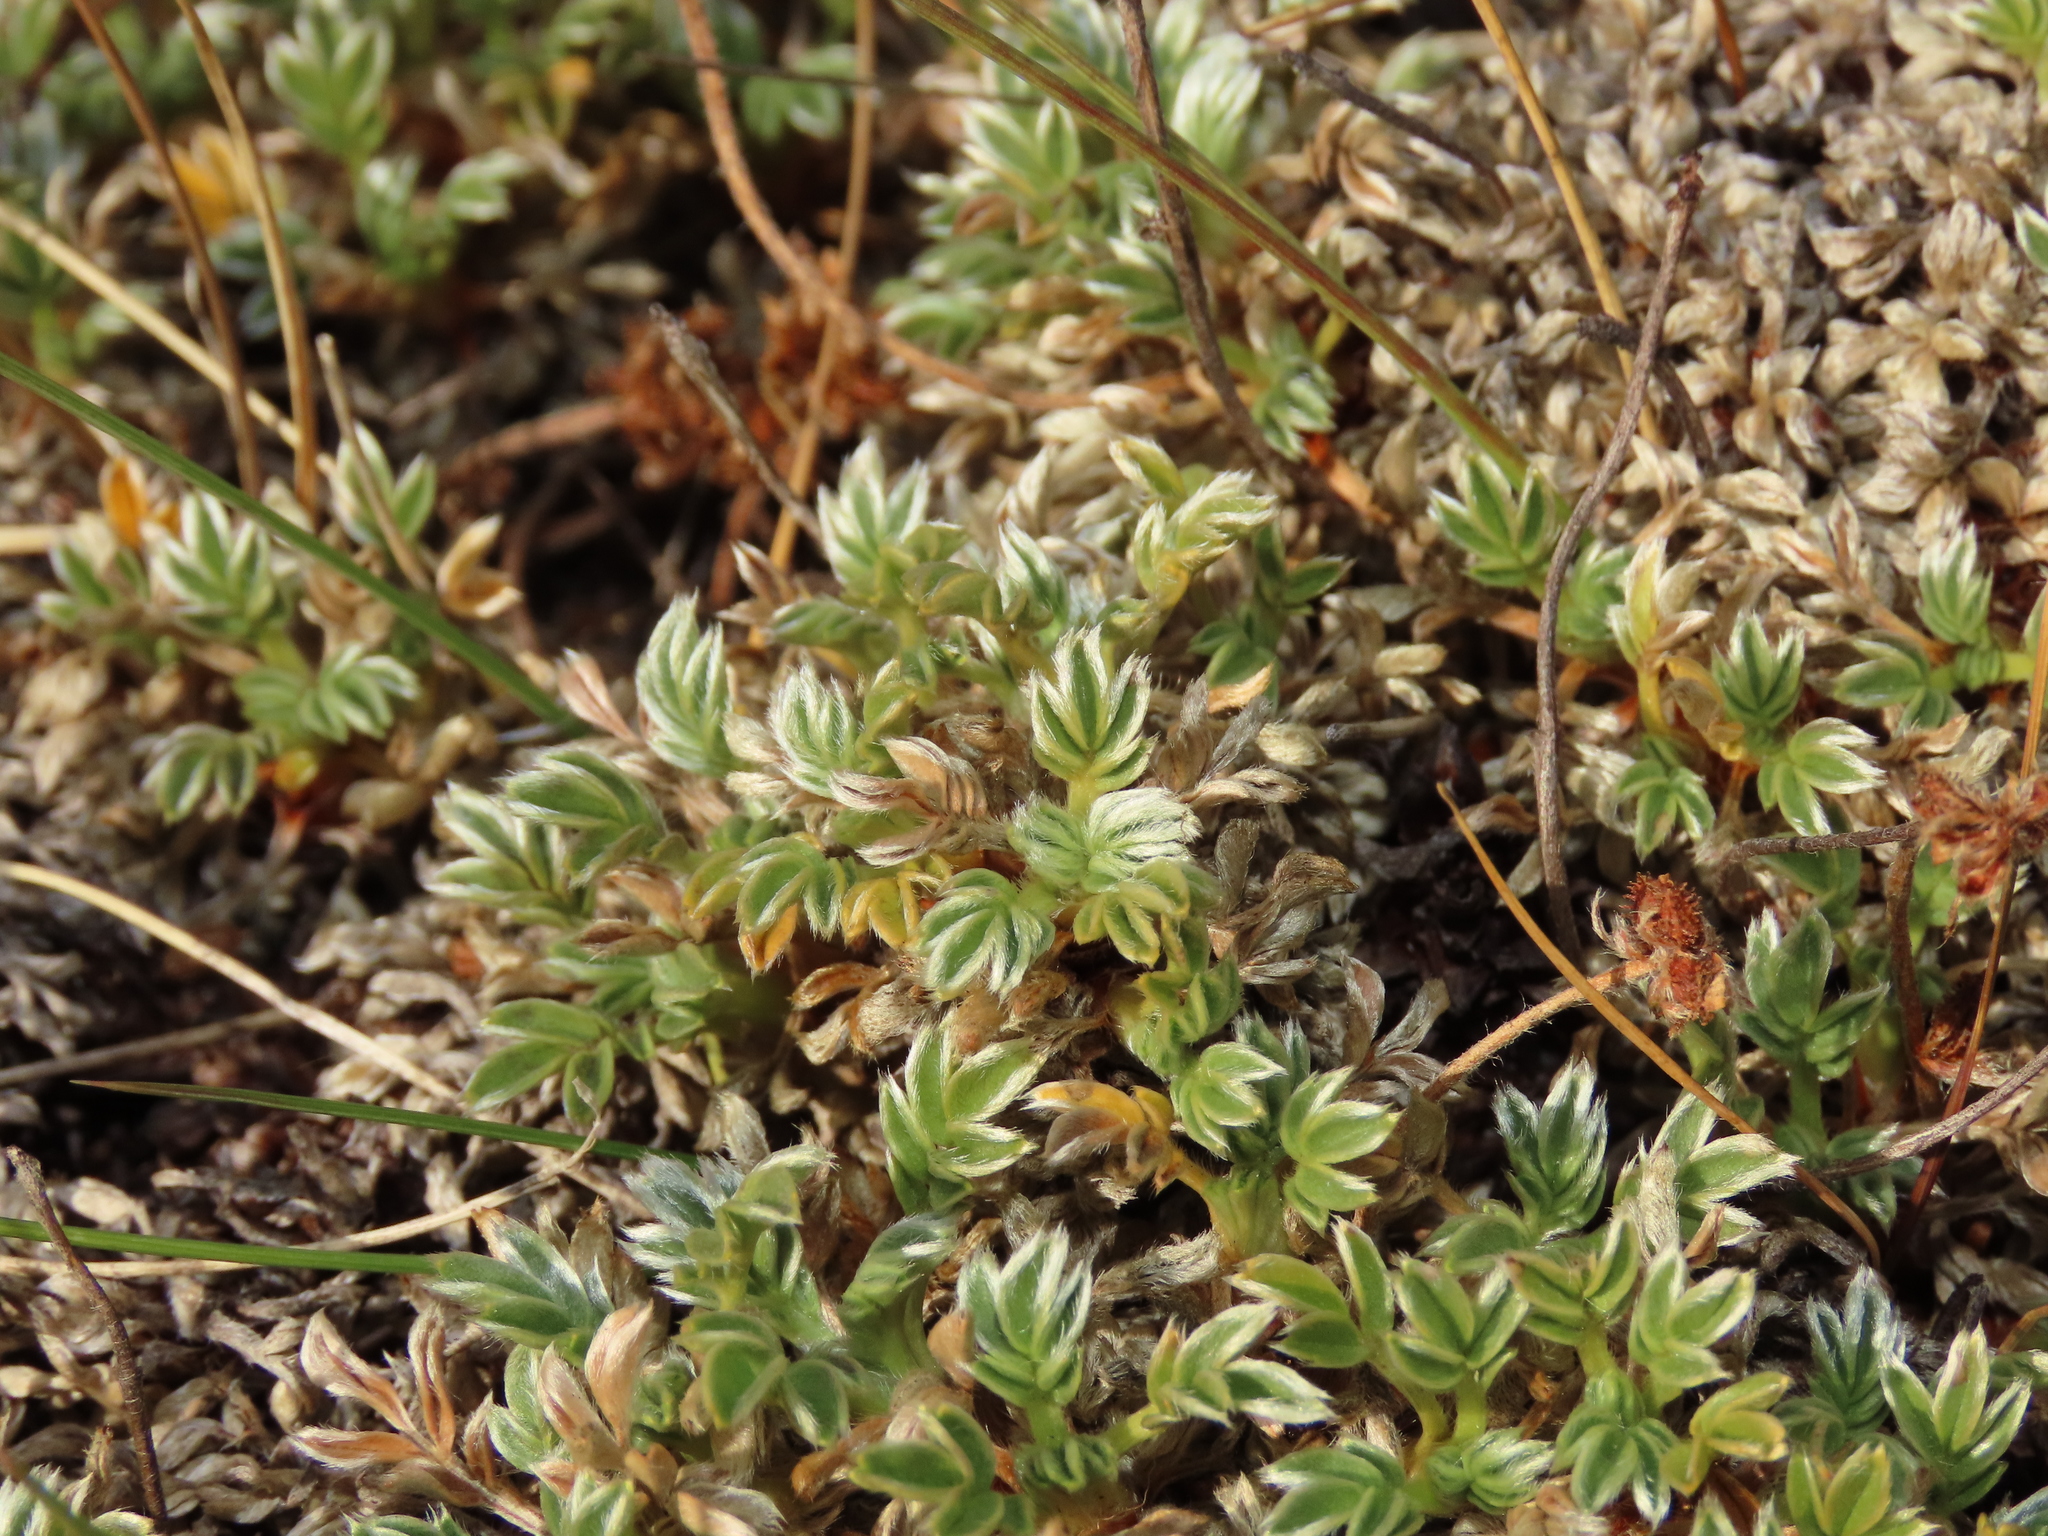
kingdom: Plantae
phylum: Tracheophyta
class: Magnoliopsida
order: Rosales
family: Rosaceae
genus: Acaena
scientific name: Acaena caespitosa
